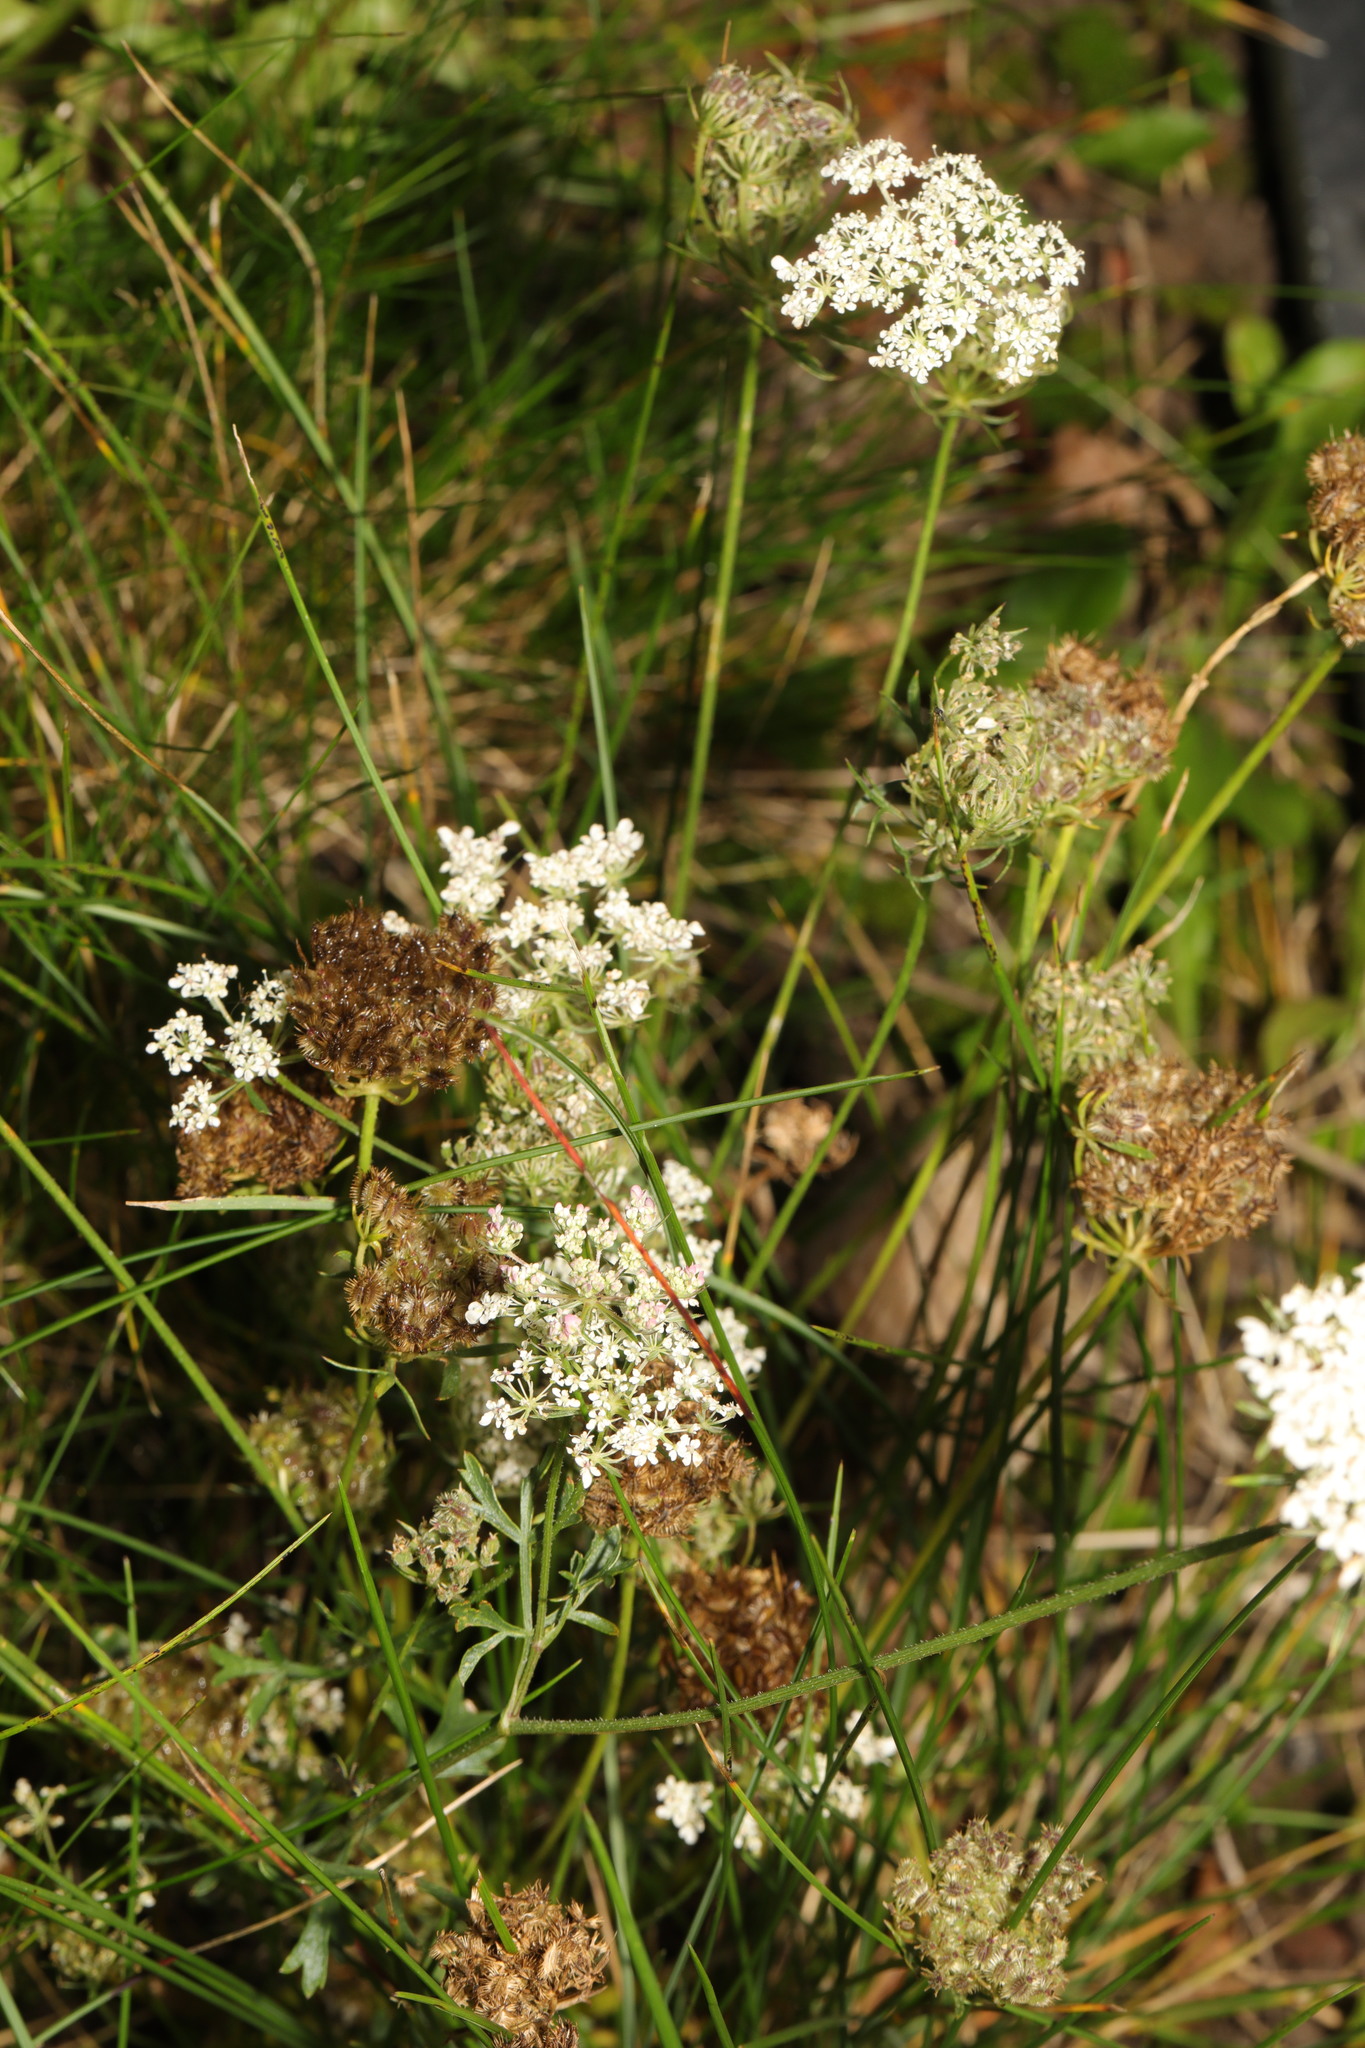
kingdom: Plantae
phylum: Tracheophyta
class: Magnoliopsida
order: Apiales
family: Apiaceae
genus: Daucus
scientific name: Daucus carota
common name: Wild carrot
